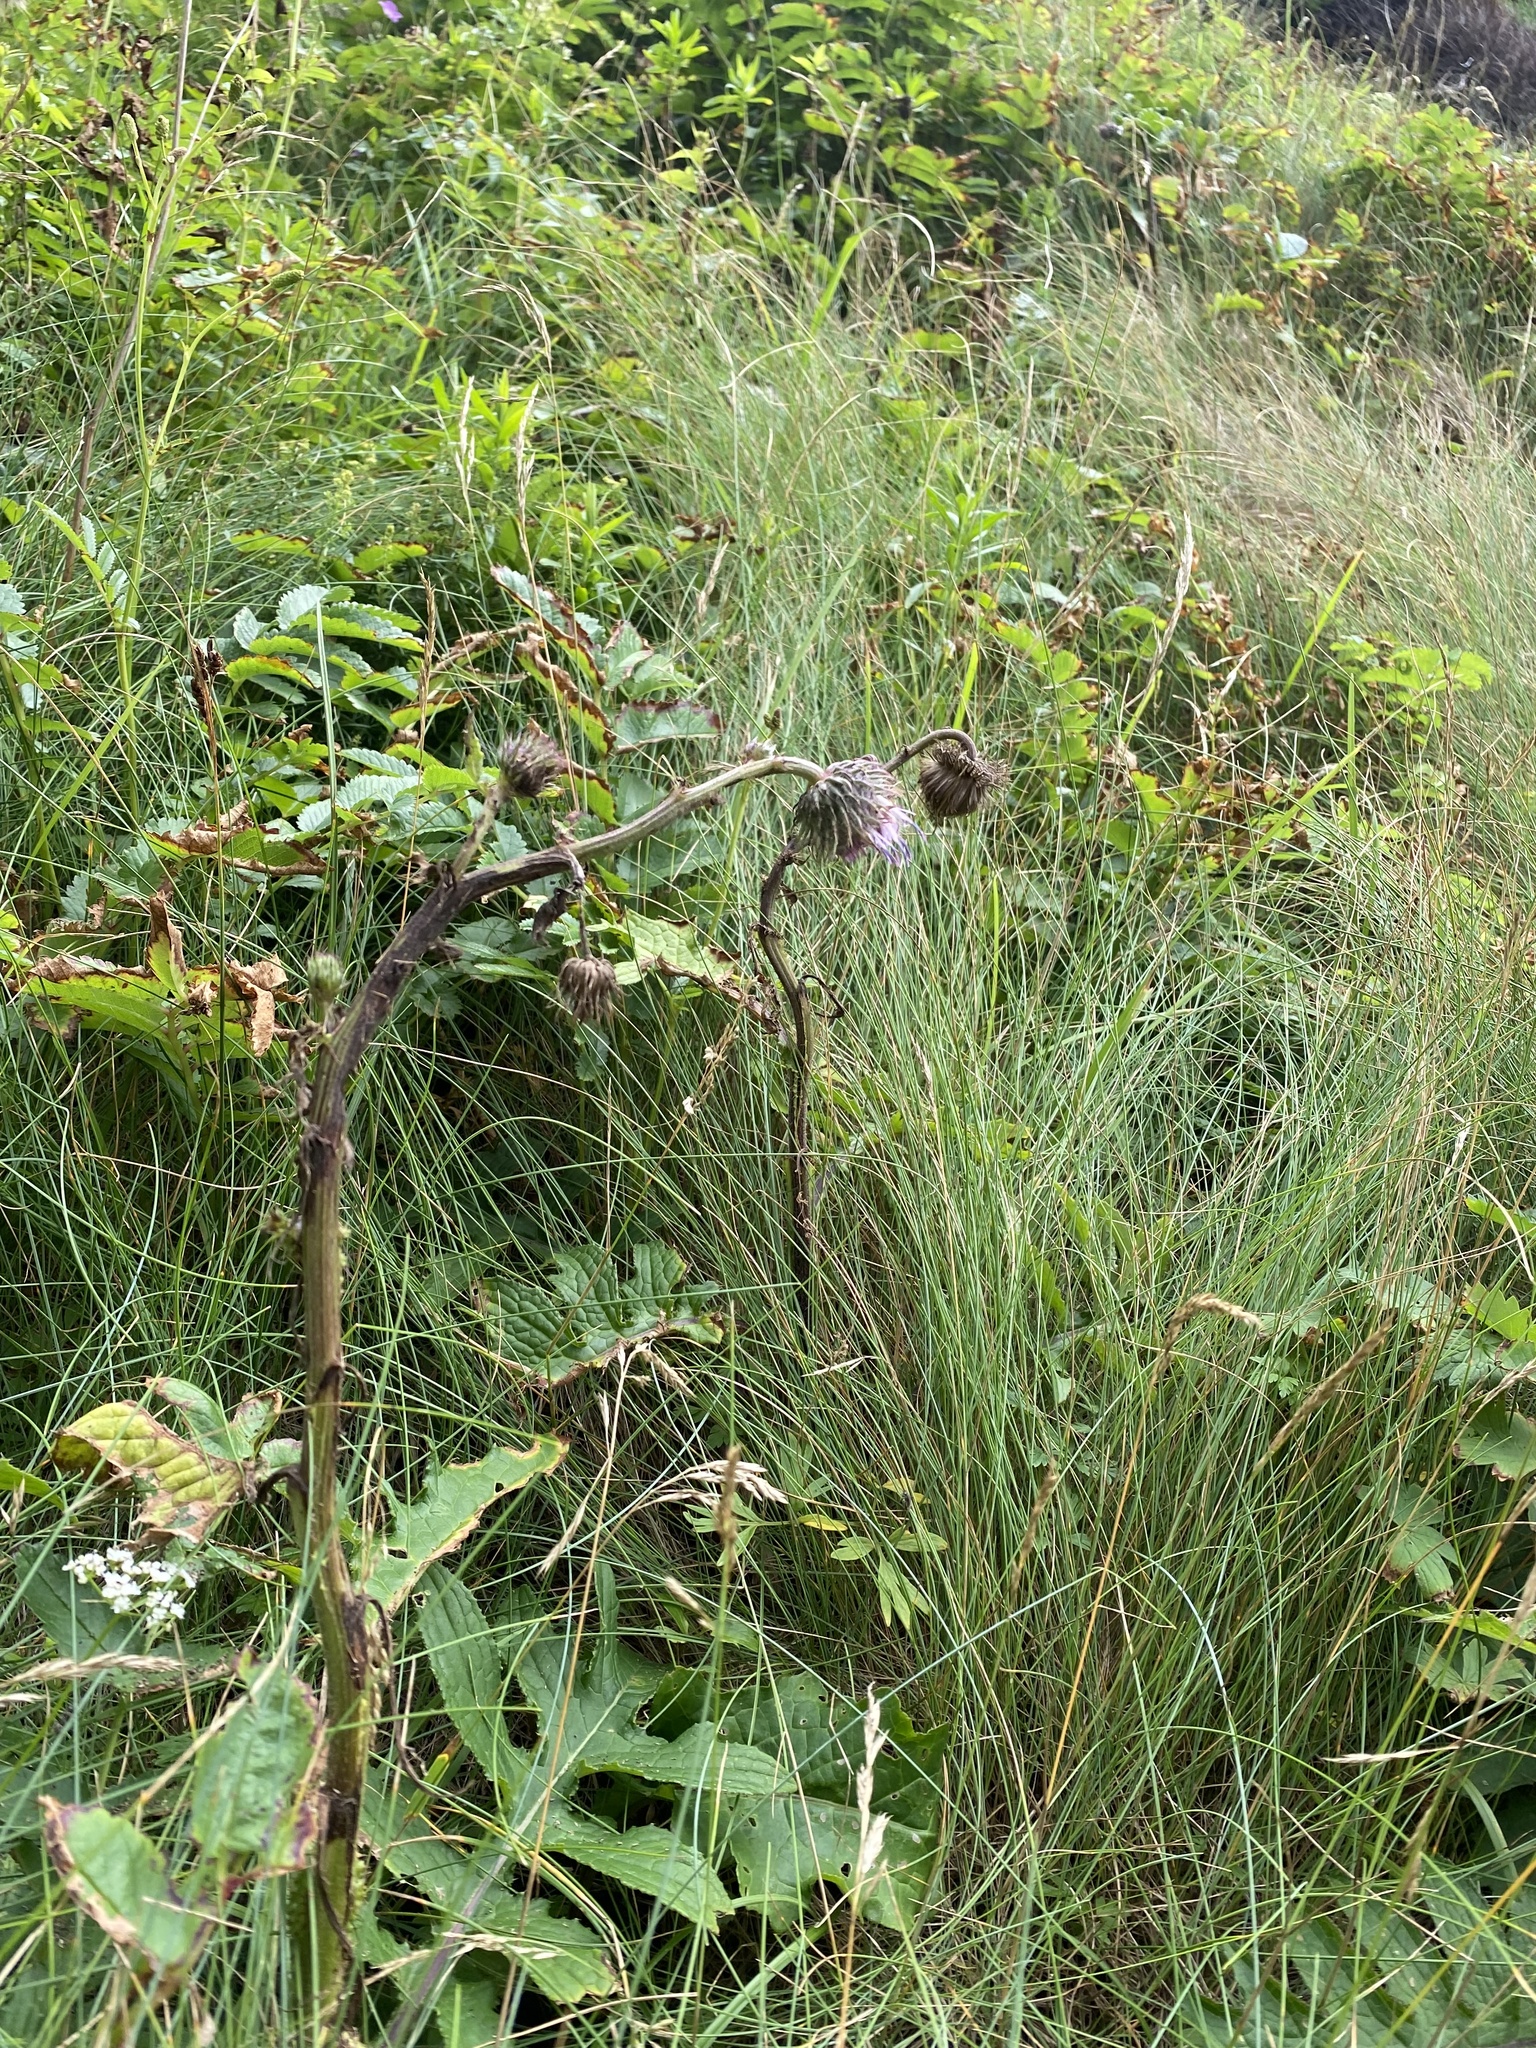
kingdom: Plantae
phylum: Tracheophyta
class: Magnoliopsida
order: Asterales
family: Asteraceae
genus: Cirsium
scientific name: Cirsium kamtschaticum
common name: Kamchatka thistle
